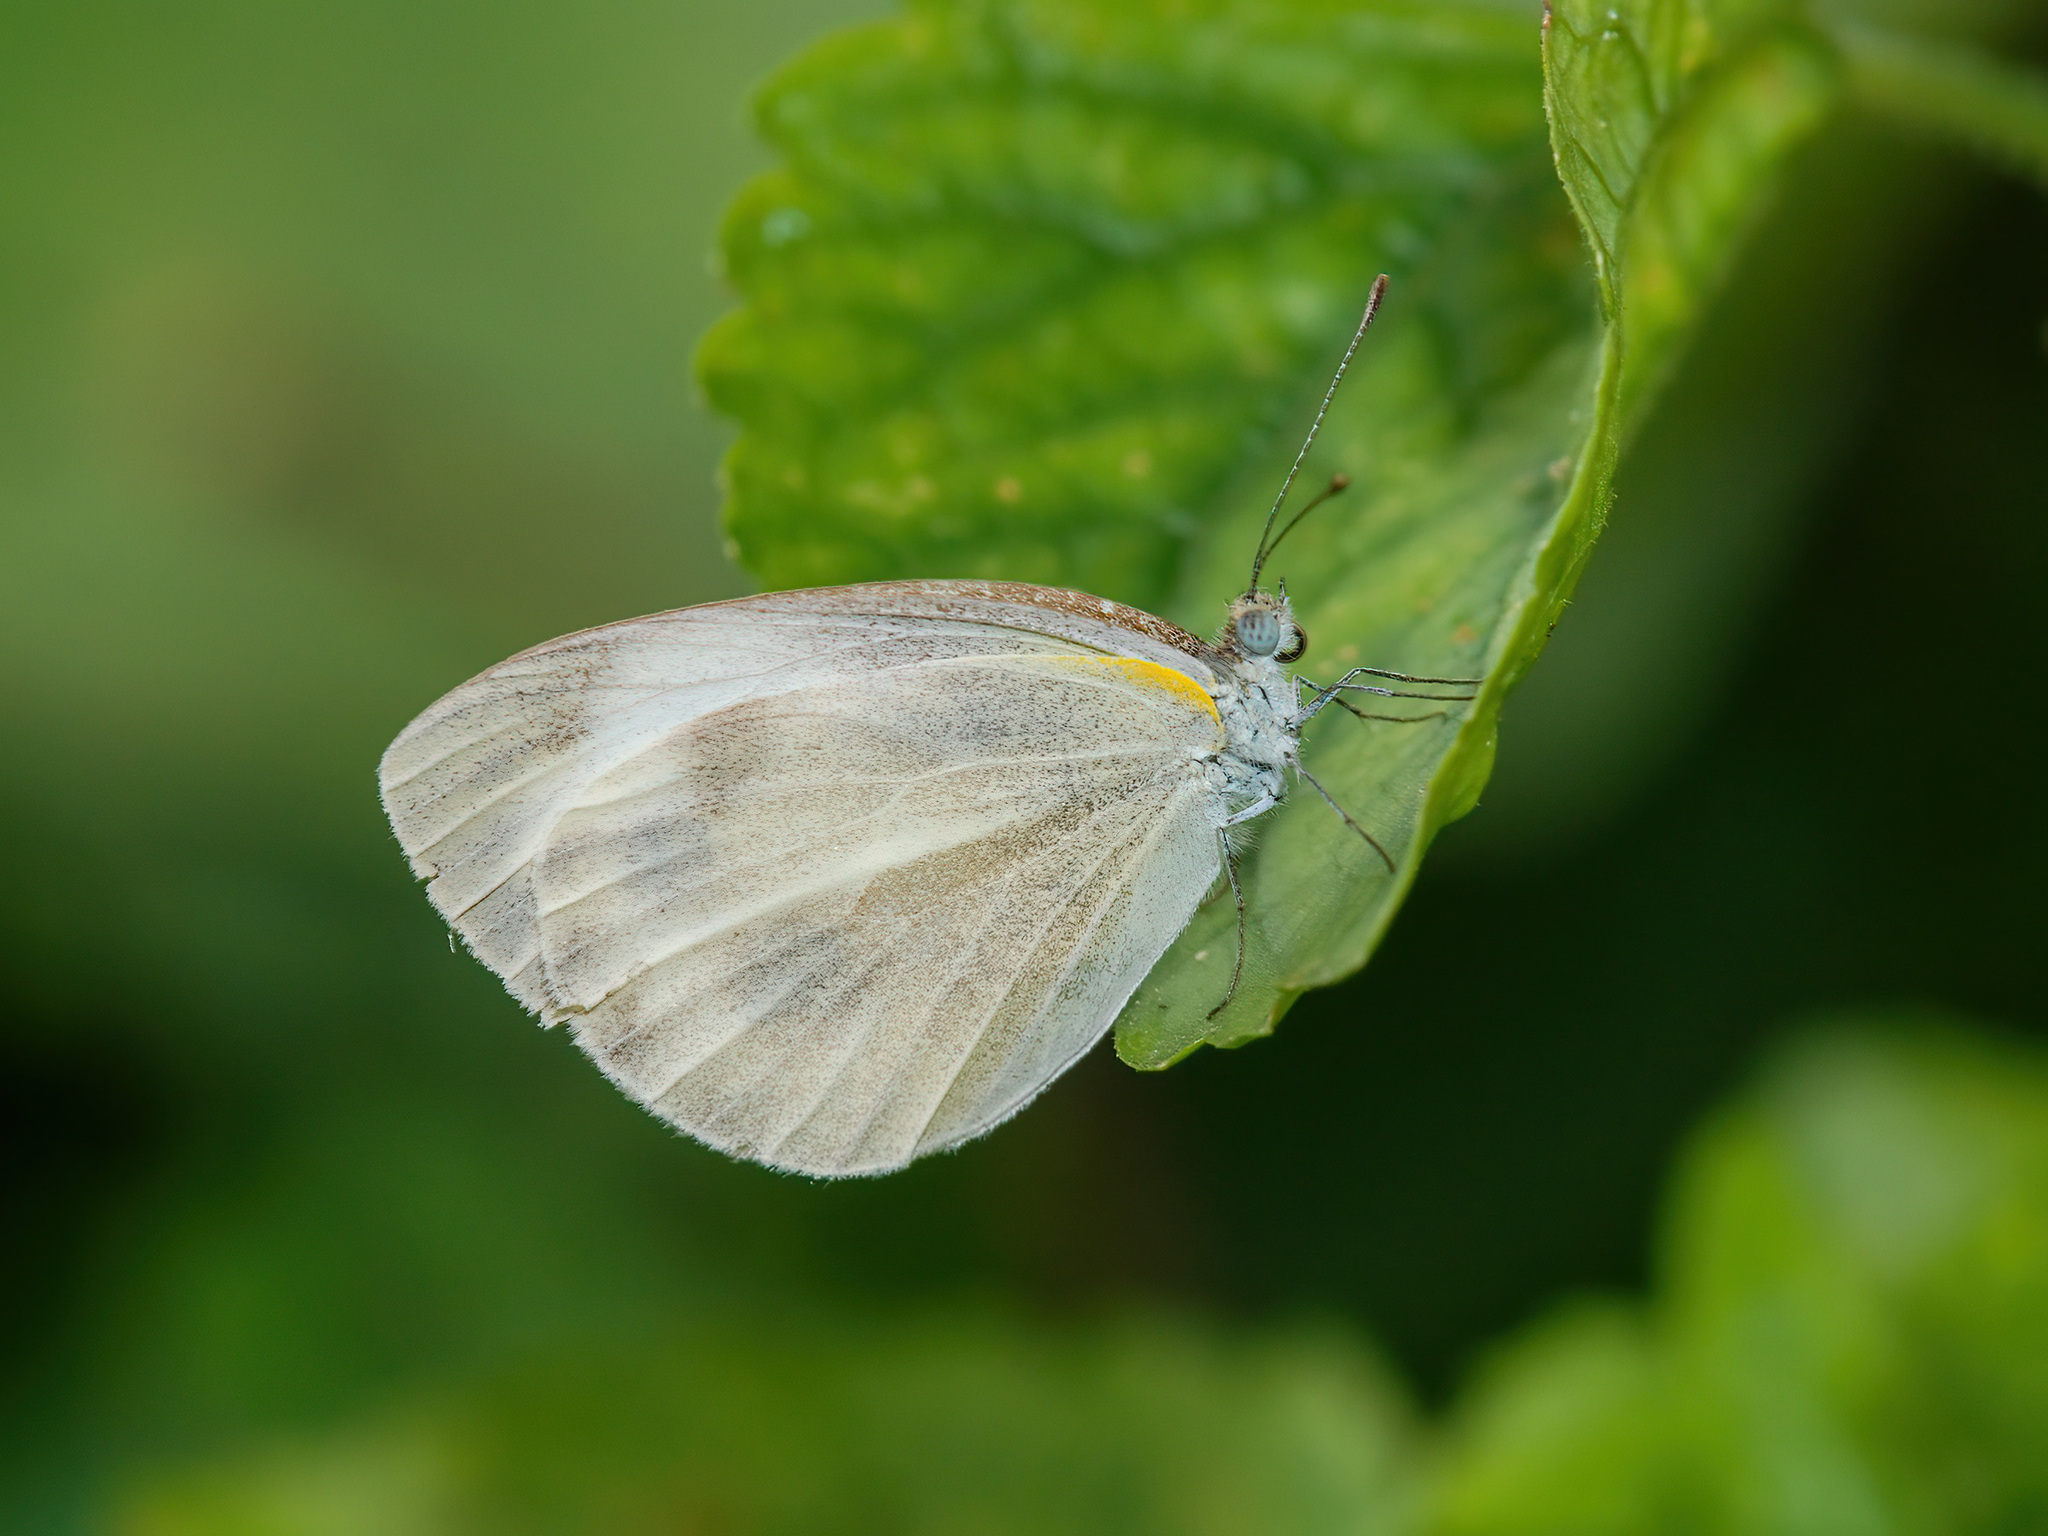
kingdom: Animalia
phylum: Arthropoda
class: Insecta
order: Lepidoptera
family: Pieridae
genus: Pieris
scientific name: Pieris canidia
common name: Indian cabbage white
